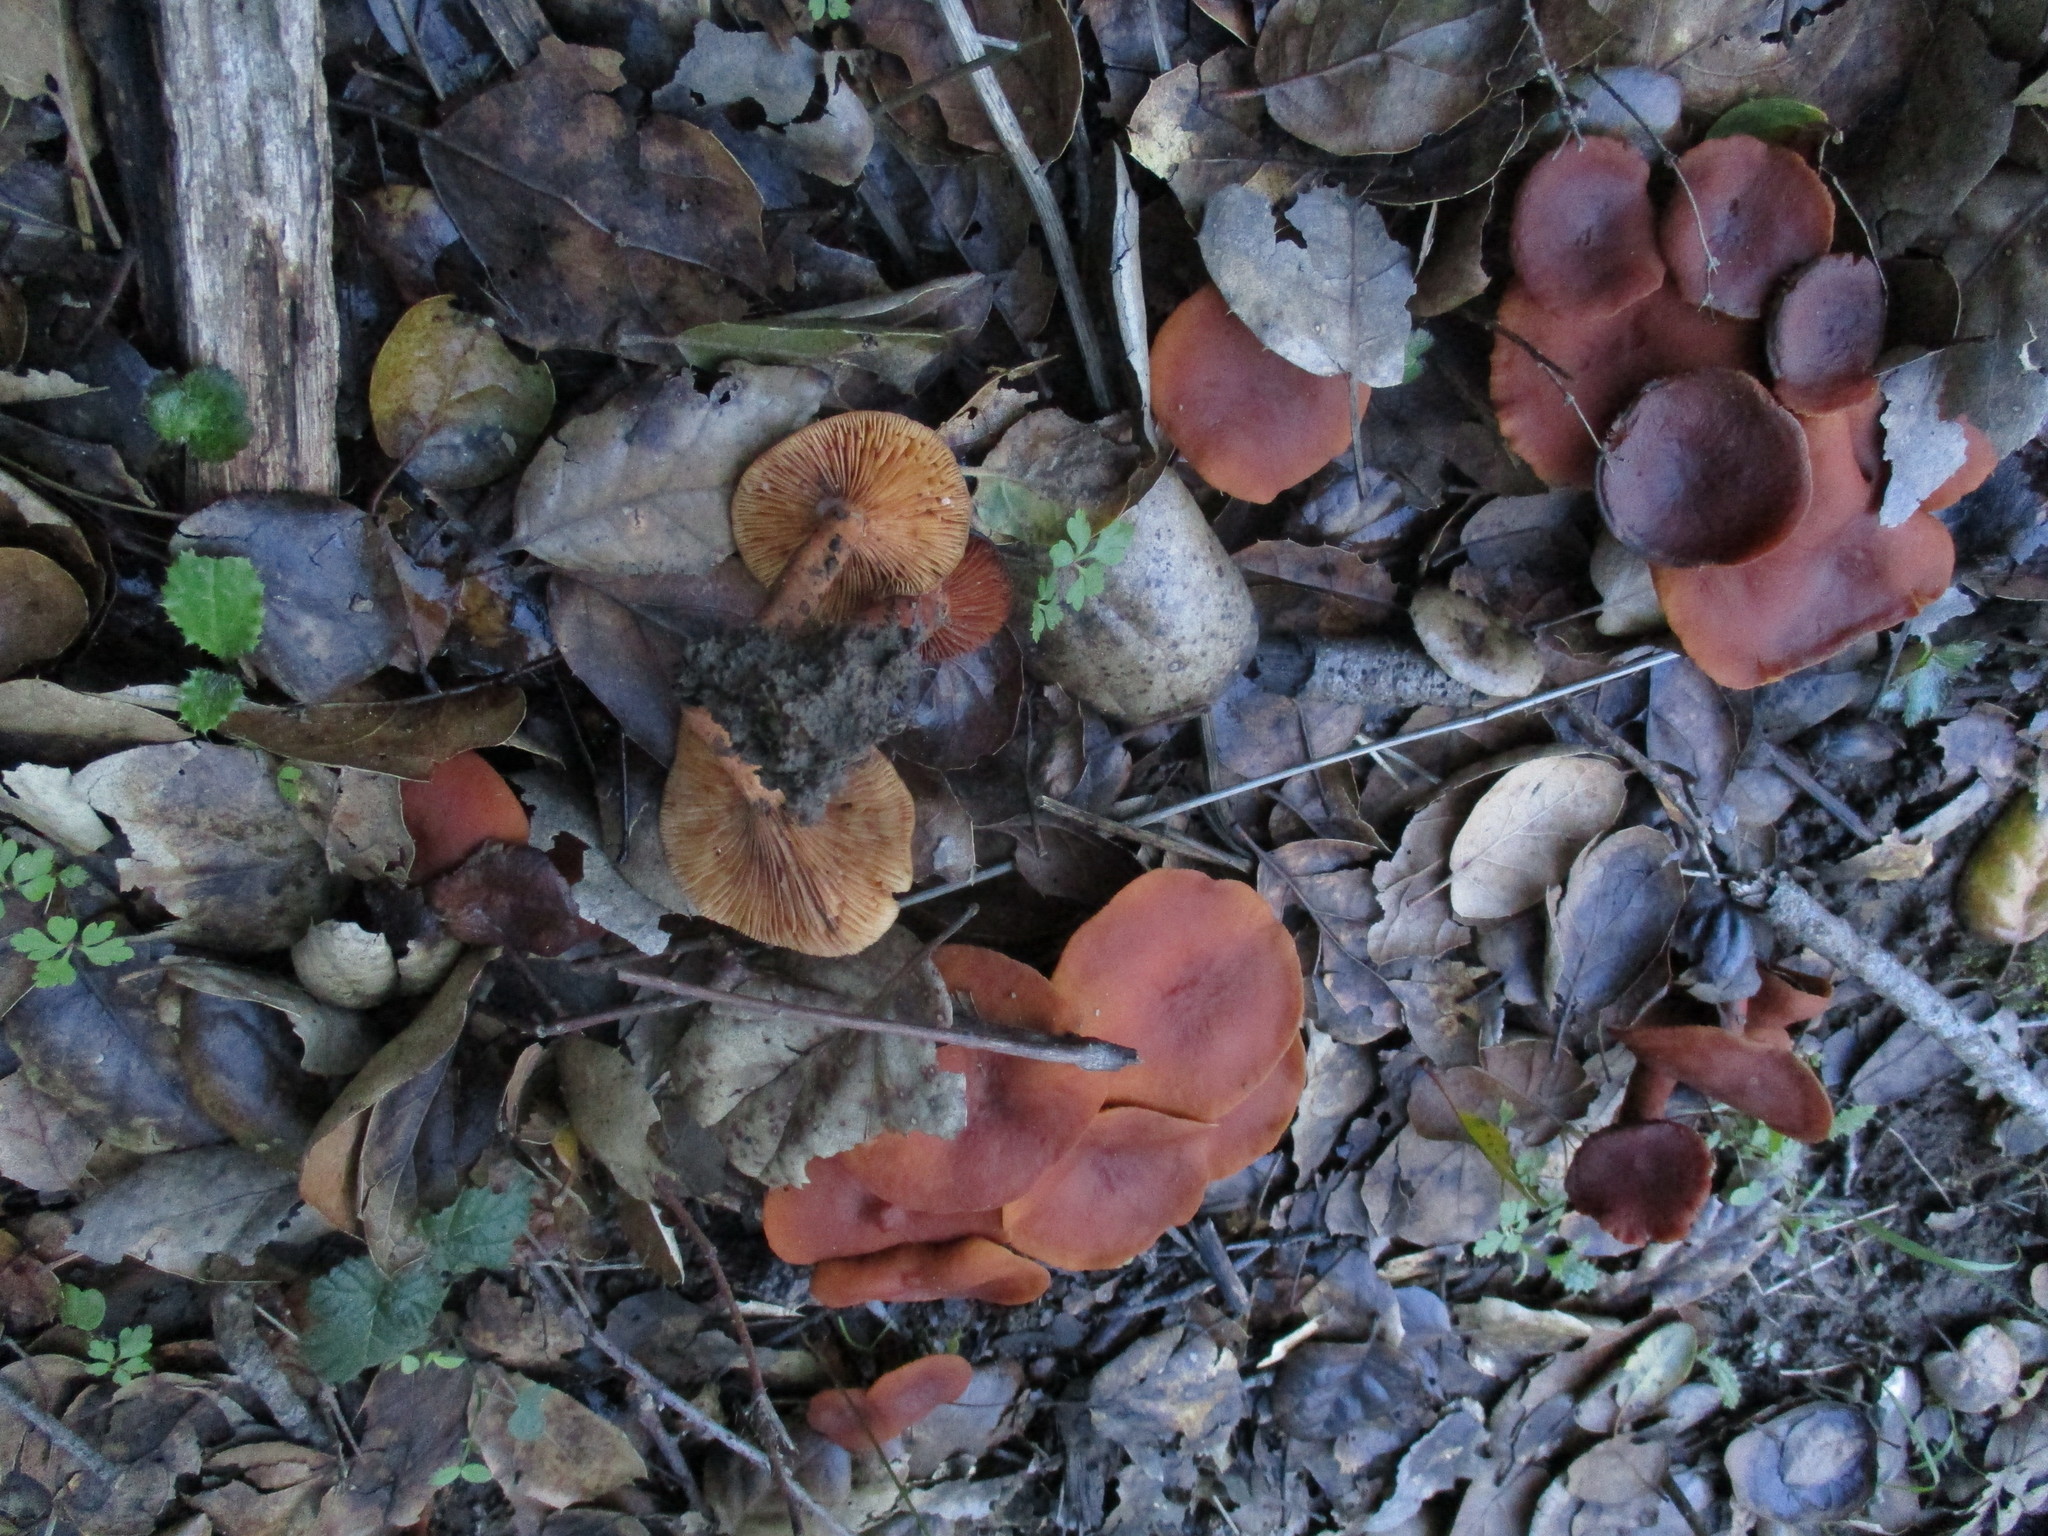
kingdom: Fungi
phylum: Basidiomycota
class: Agaricomycetes
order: Russulales
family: Russulaceae
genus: Lactarius
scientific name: Lactarius rufulus
